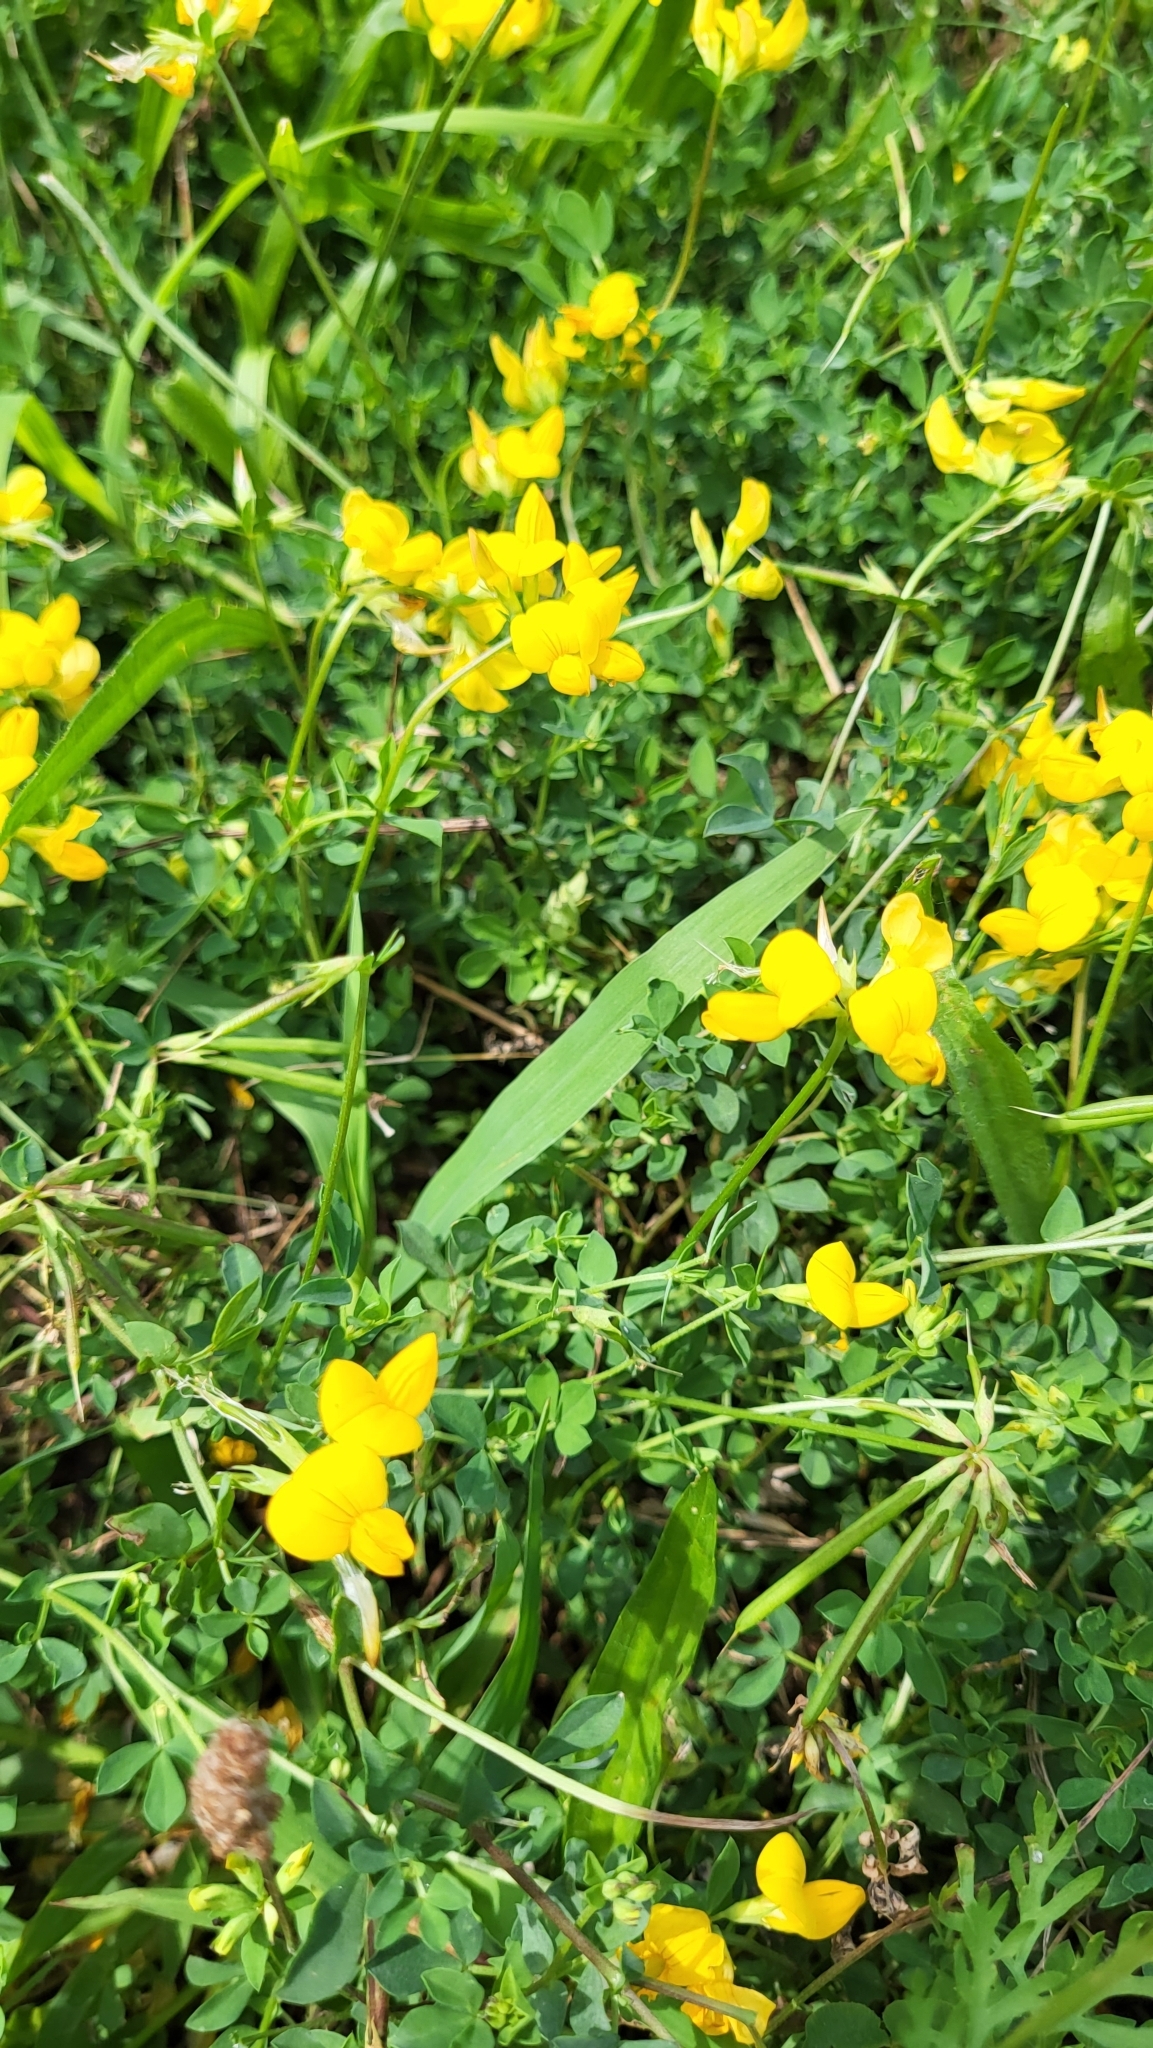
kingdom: Plantae
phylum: Tracheophyta
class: Magnoliopsida
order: Fabales
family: Fabaceae
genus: Lotus
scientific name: Lotus corniculatus
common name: Common bird's-foot-trefoil
